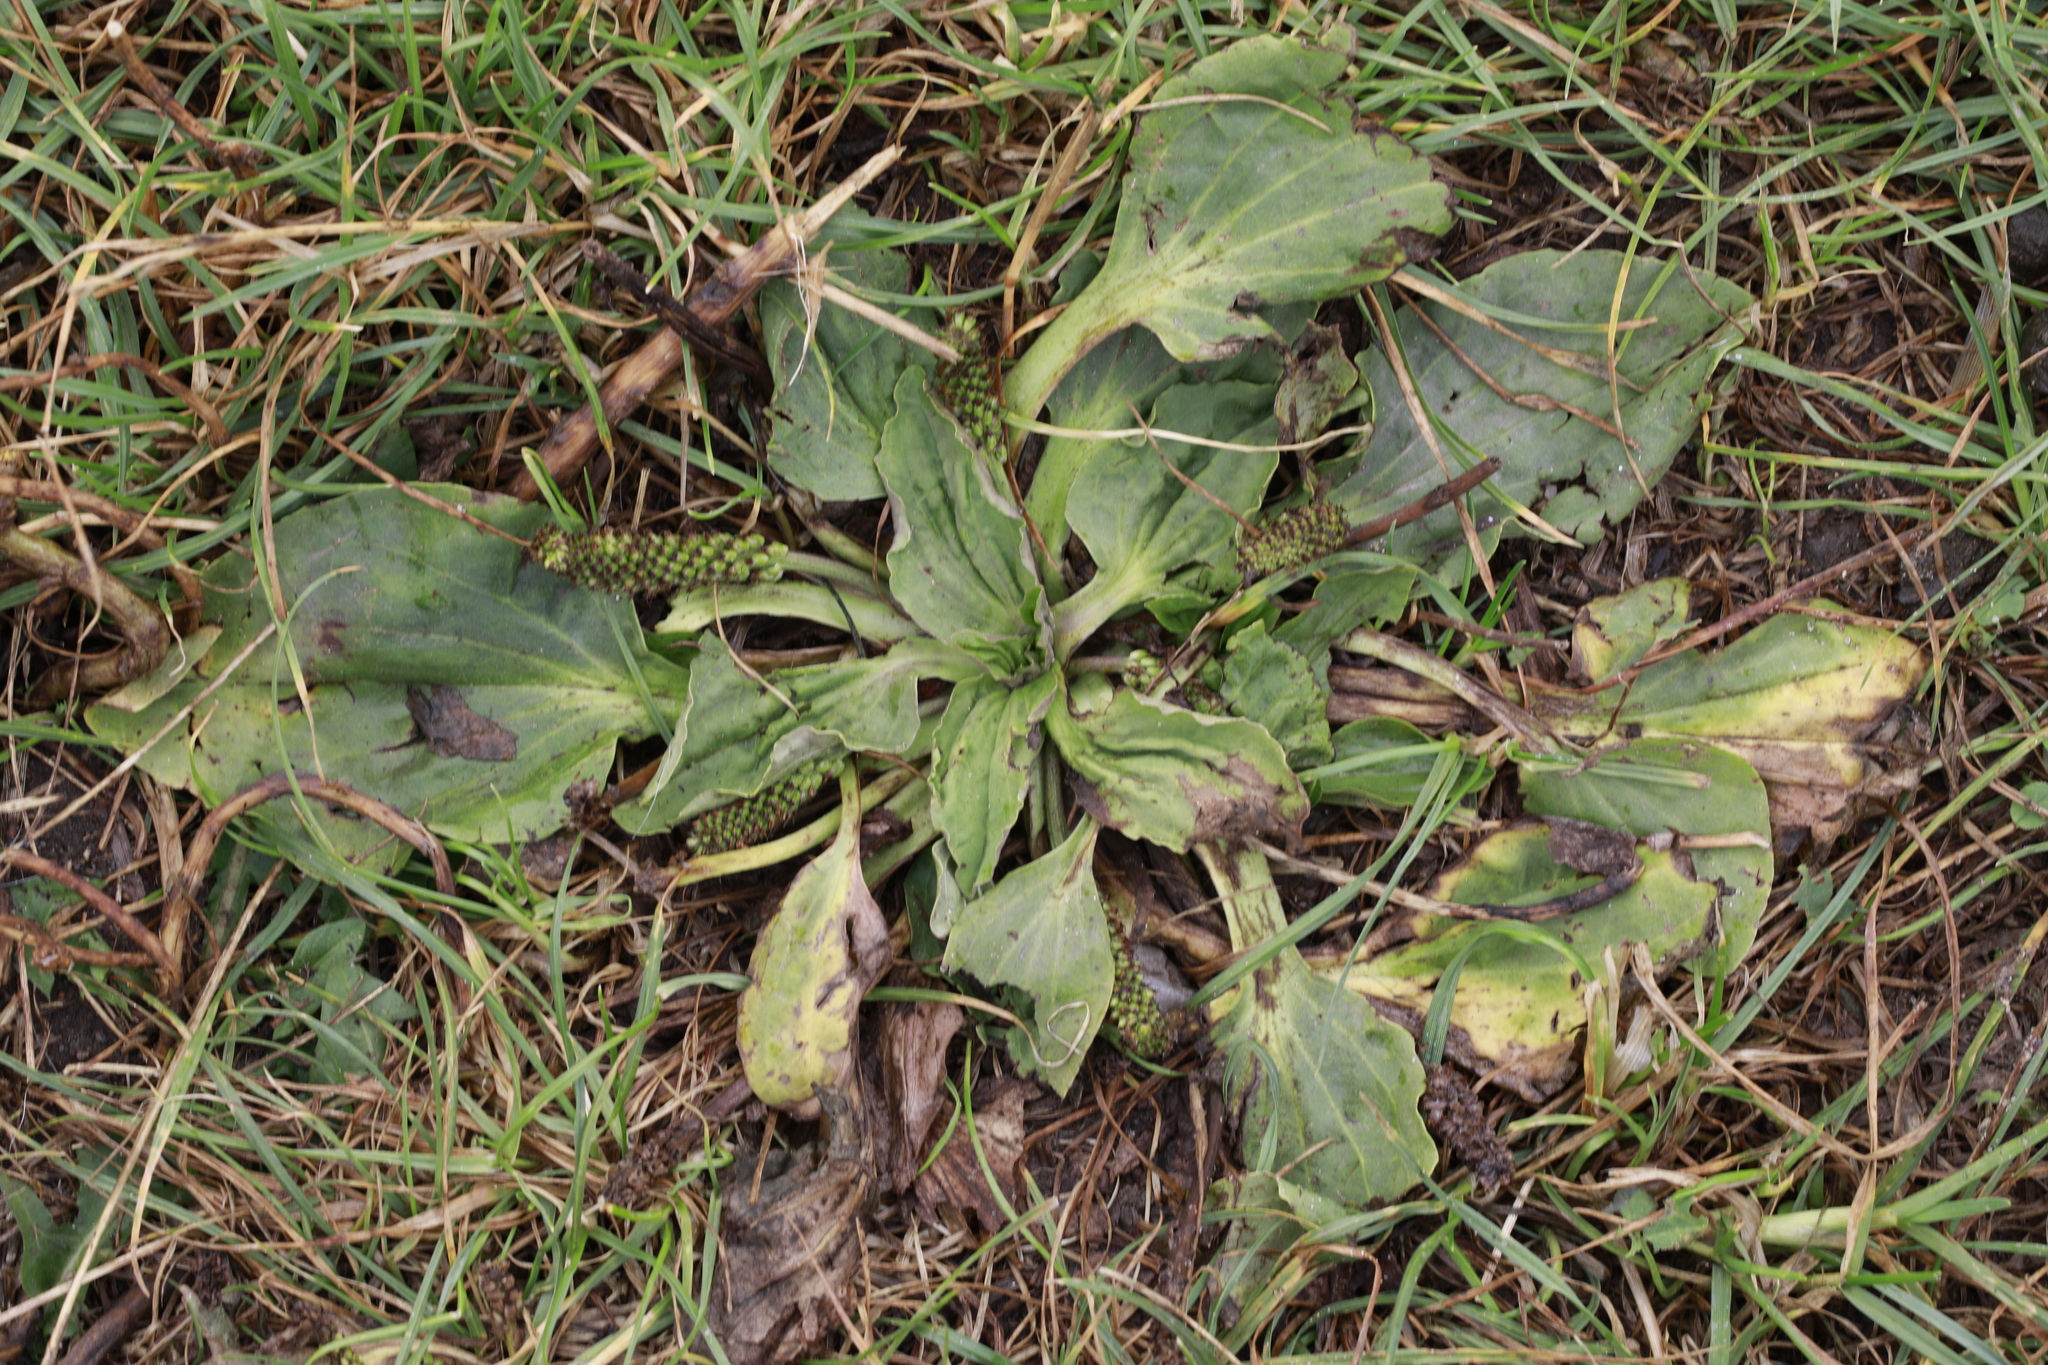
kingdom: Plantae
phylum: Tracheophyta
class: Magnoliopsida
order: Lamiales
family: Plantaginaceae
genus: Plantago
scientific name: Plantago major
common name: Common plantain
